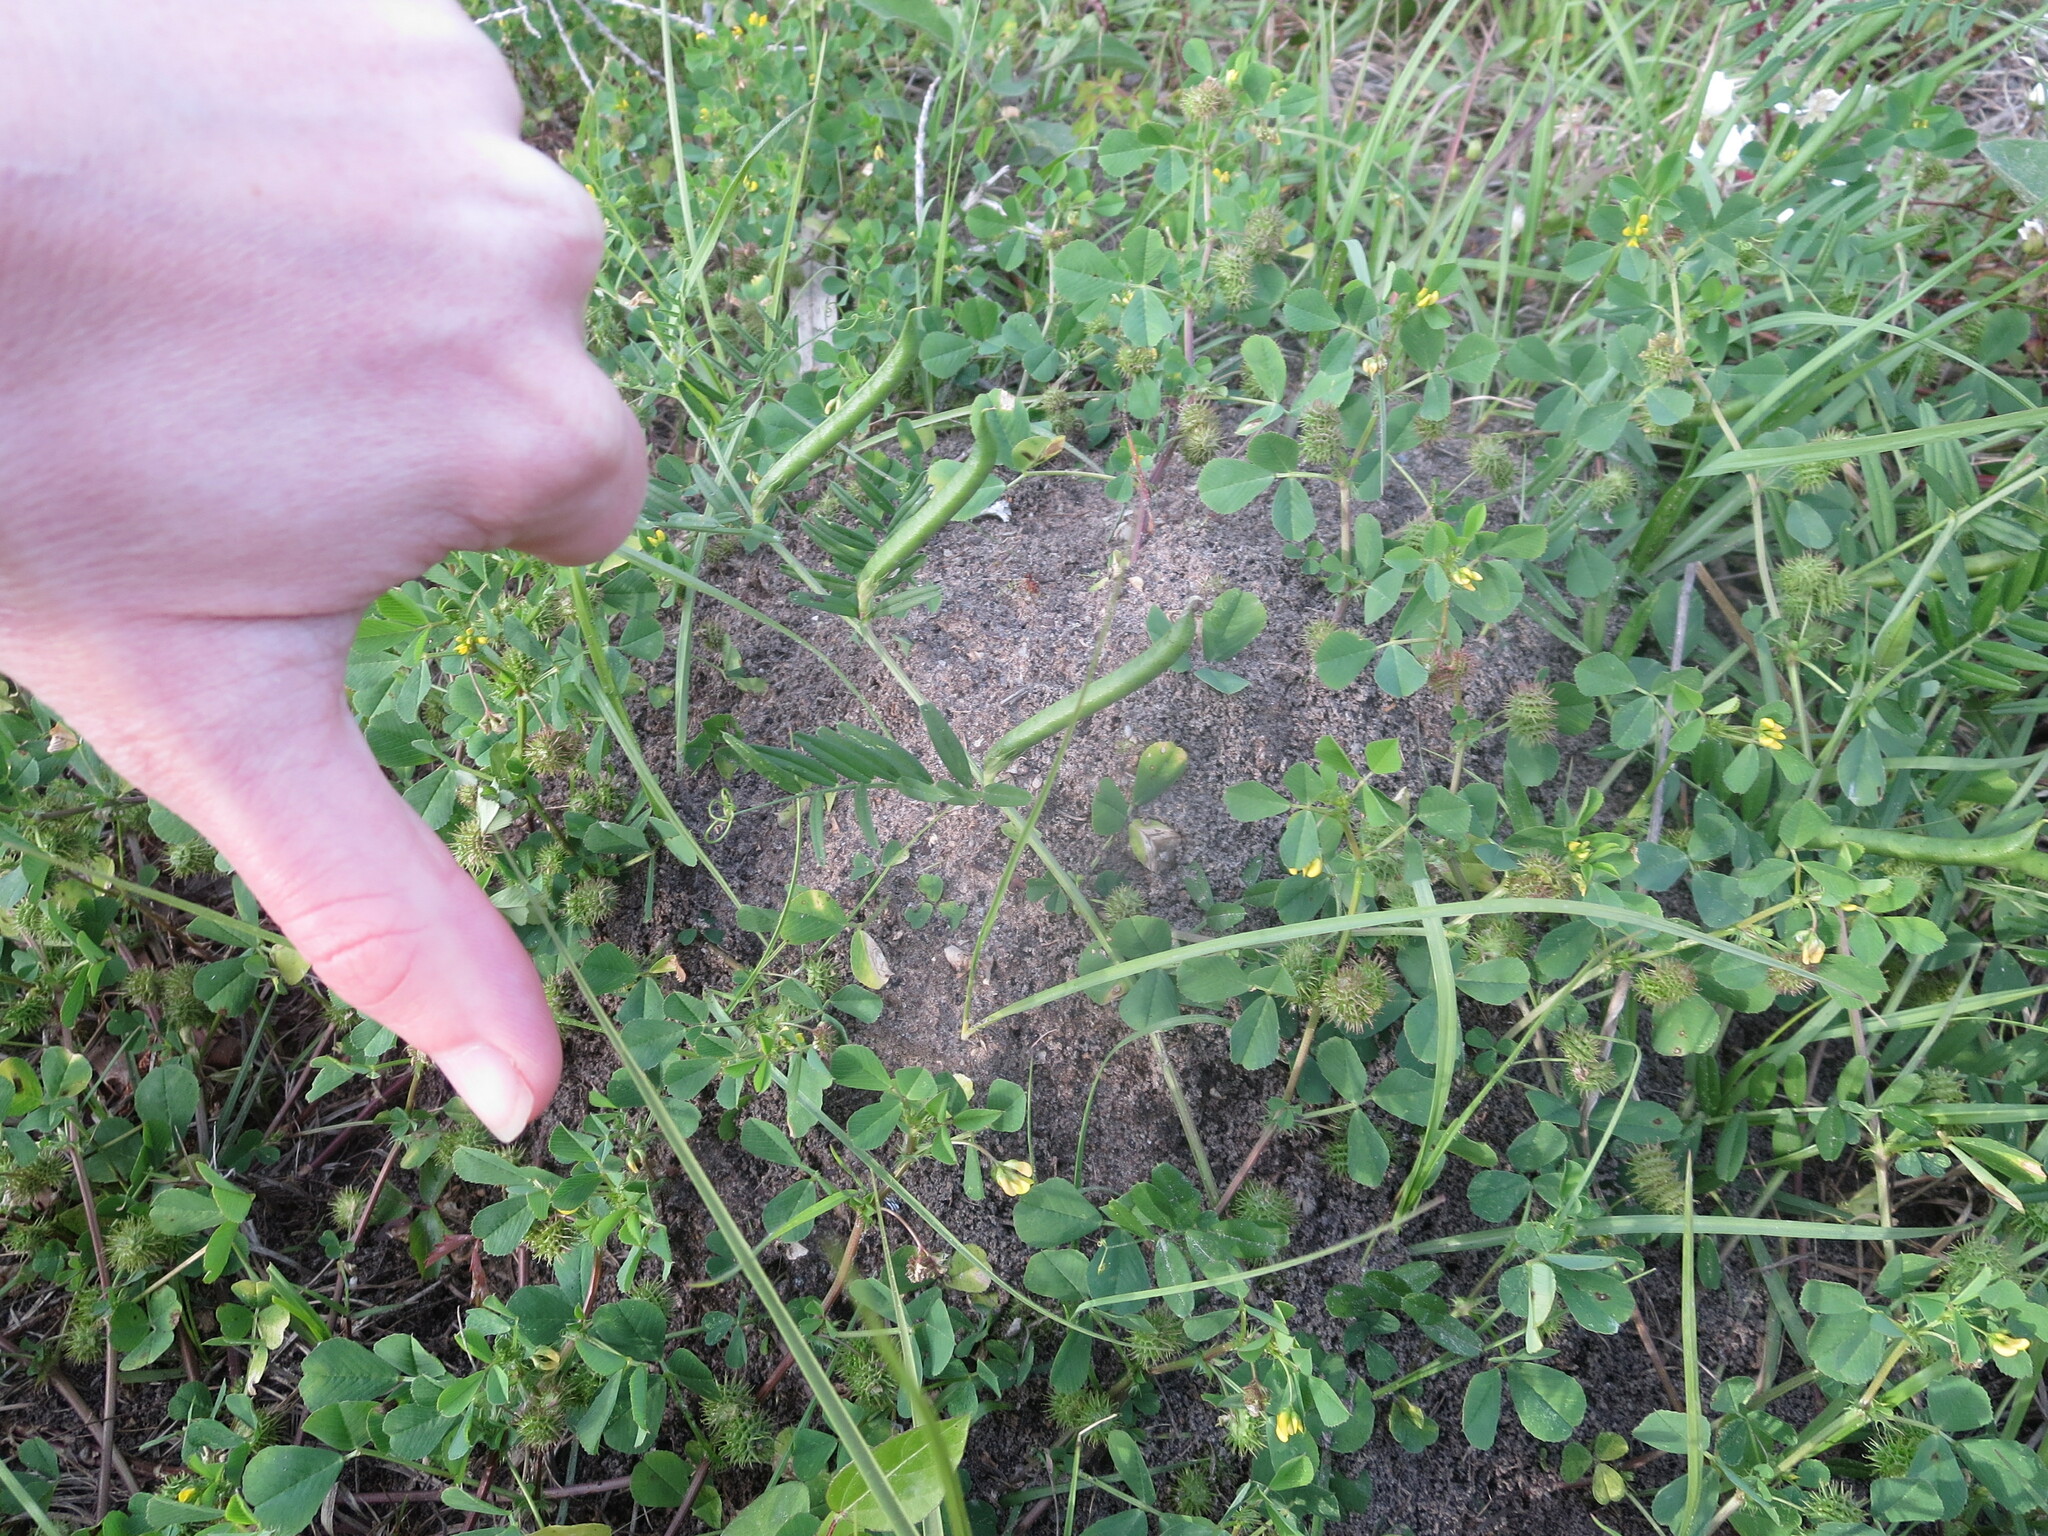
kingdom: Animalia
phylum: Arthropoda
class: Insecta
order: Hymenoptera
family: Formicidae
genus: Solenopsis
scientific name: Solenopsis invicta
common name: Red imported fire ant
